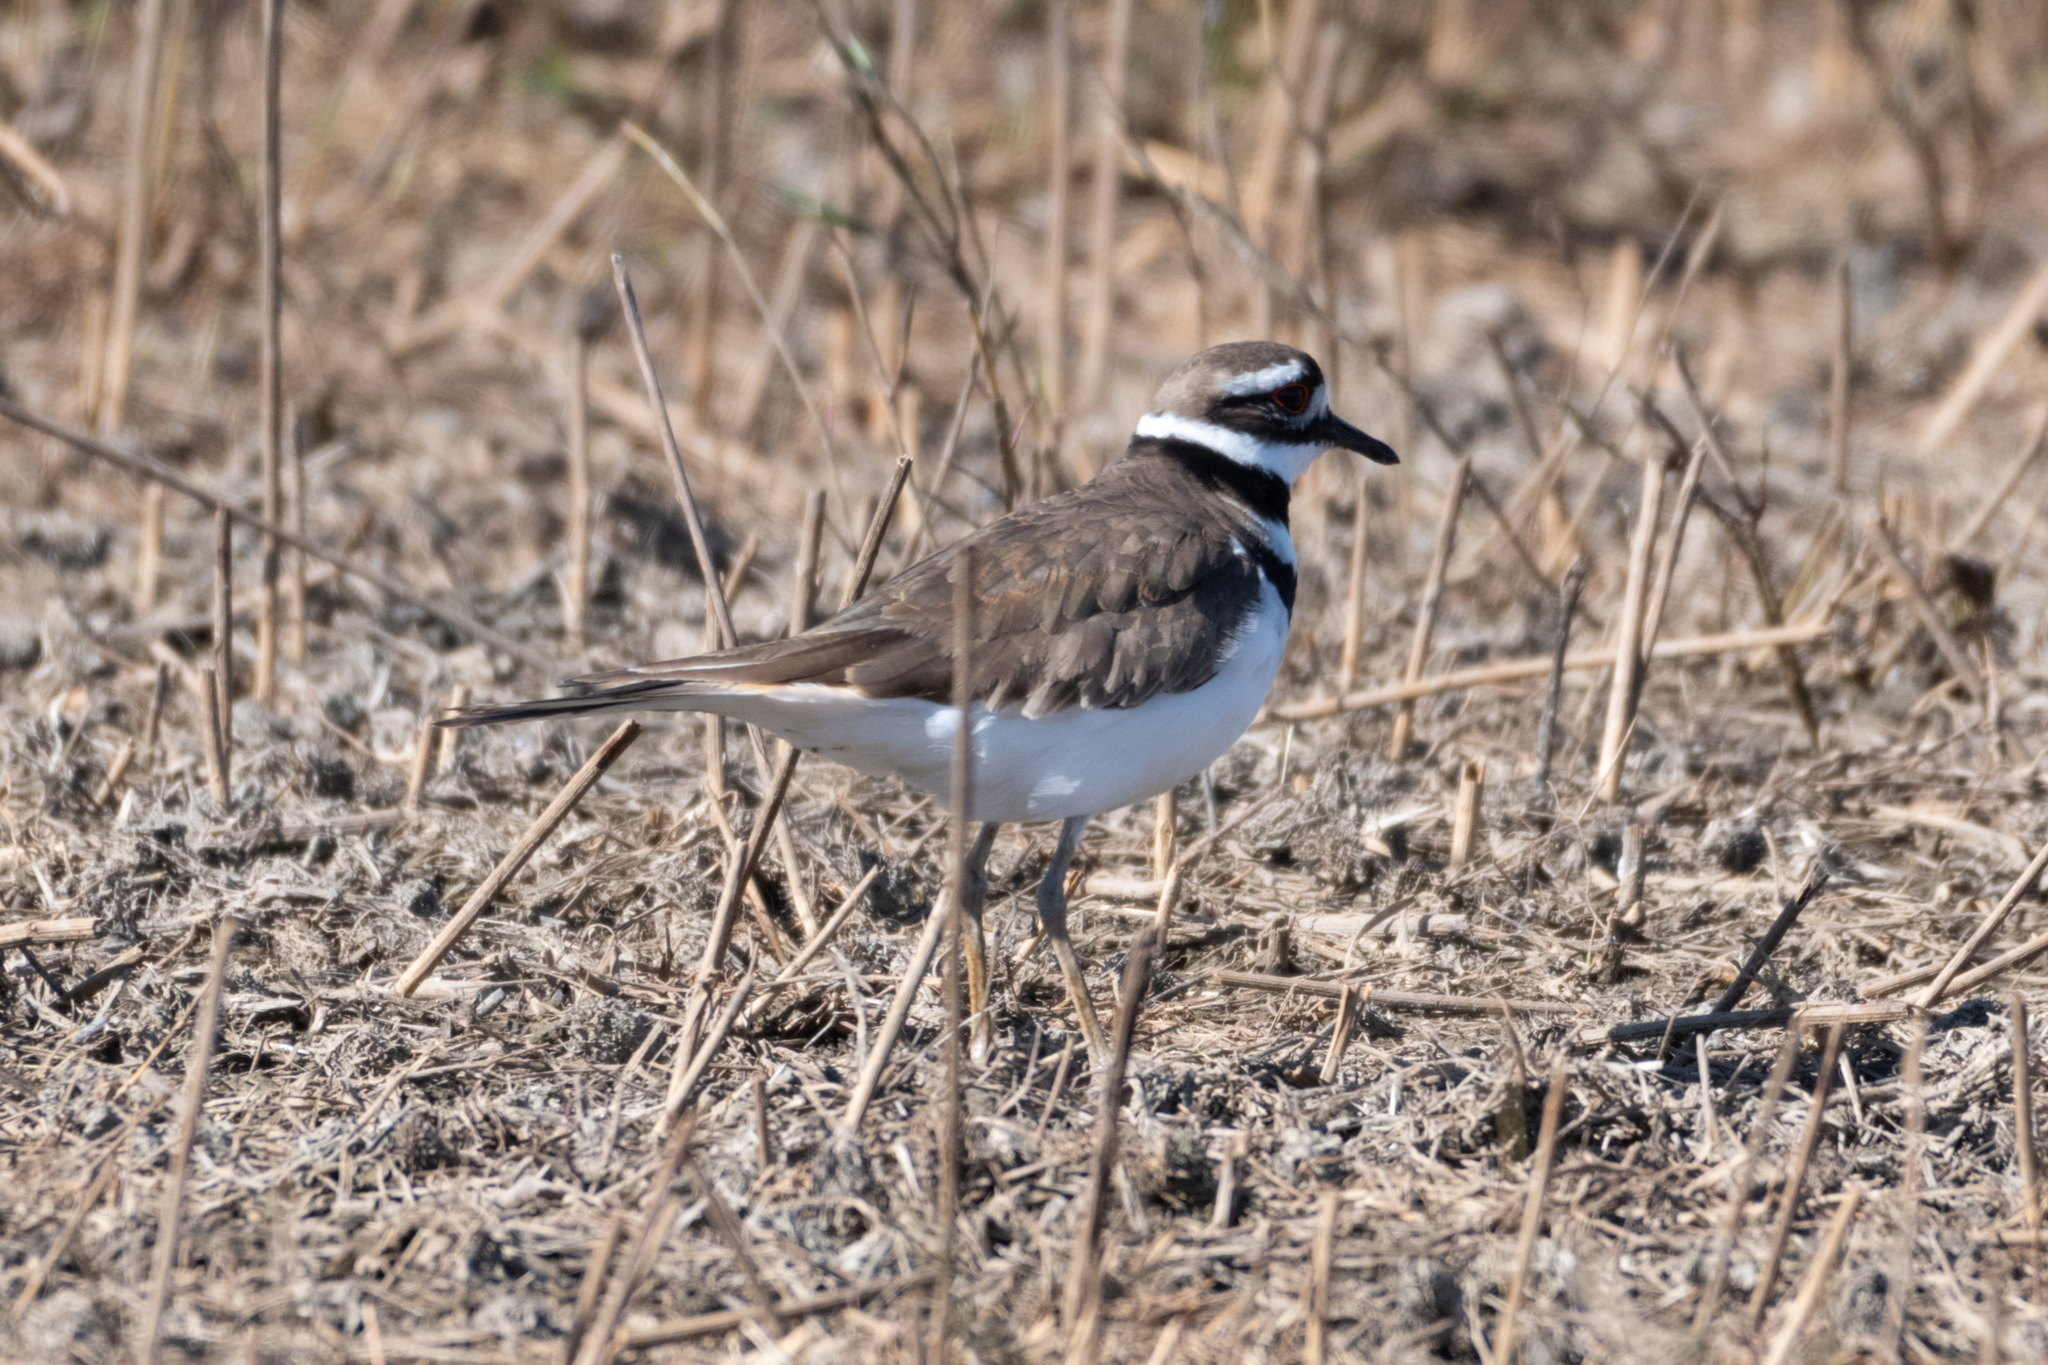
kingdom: Animalia
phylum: Chordata
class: Aves
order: Charadriiformes
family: Charadriidae
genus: Charadrius
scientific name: Charadrius vociferus
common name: Killdeer
